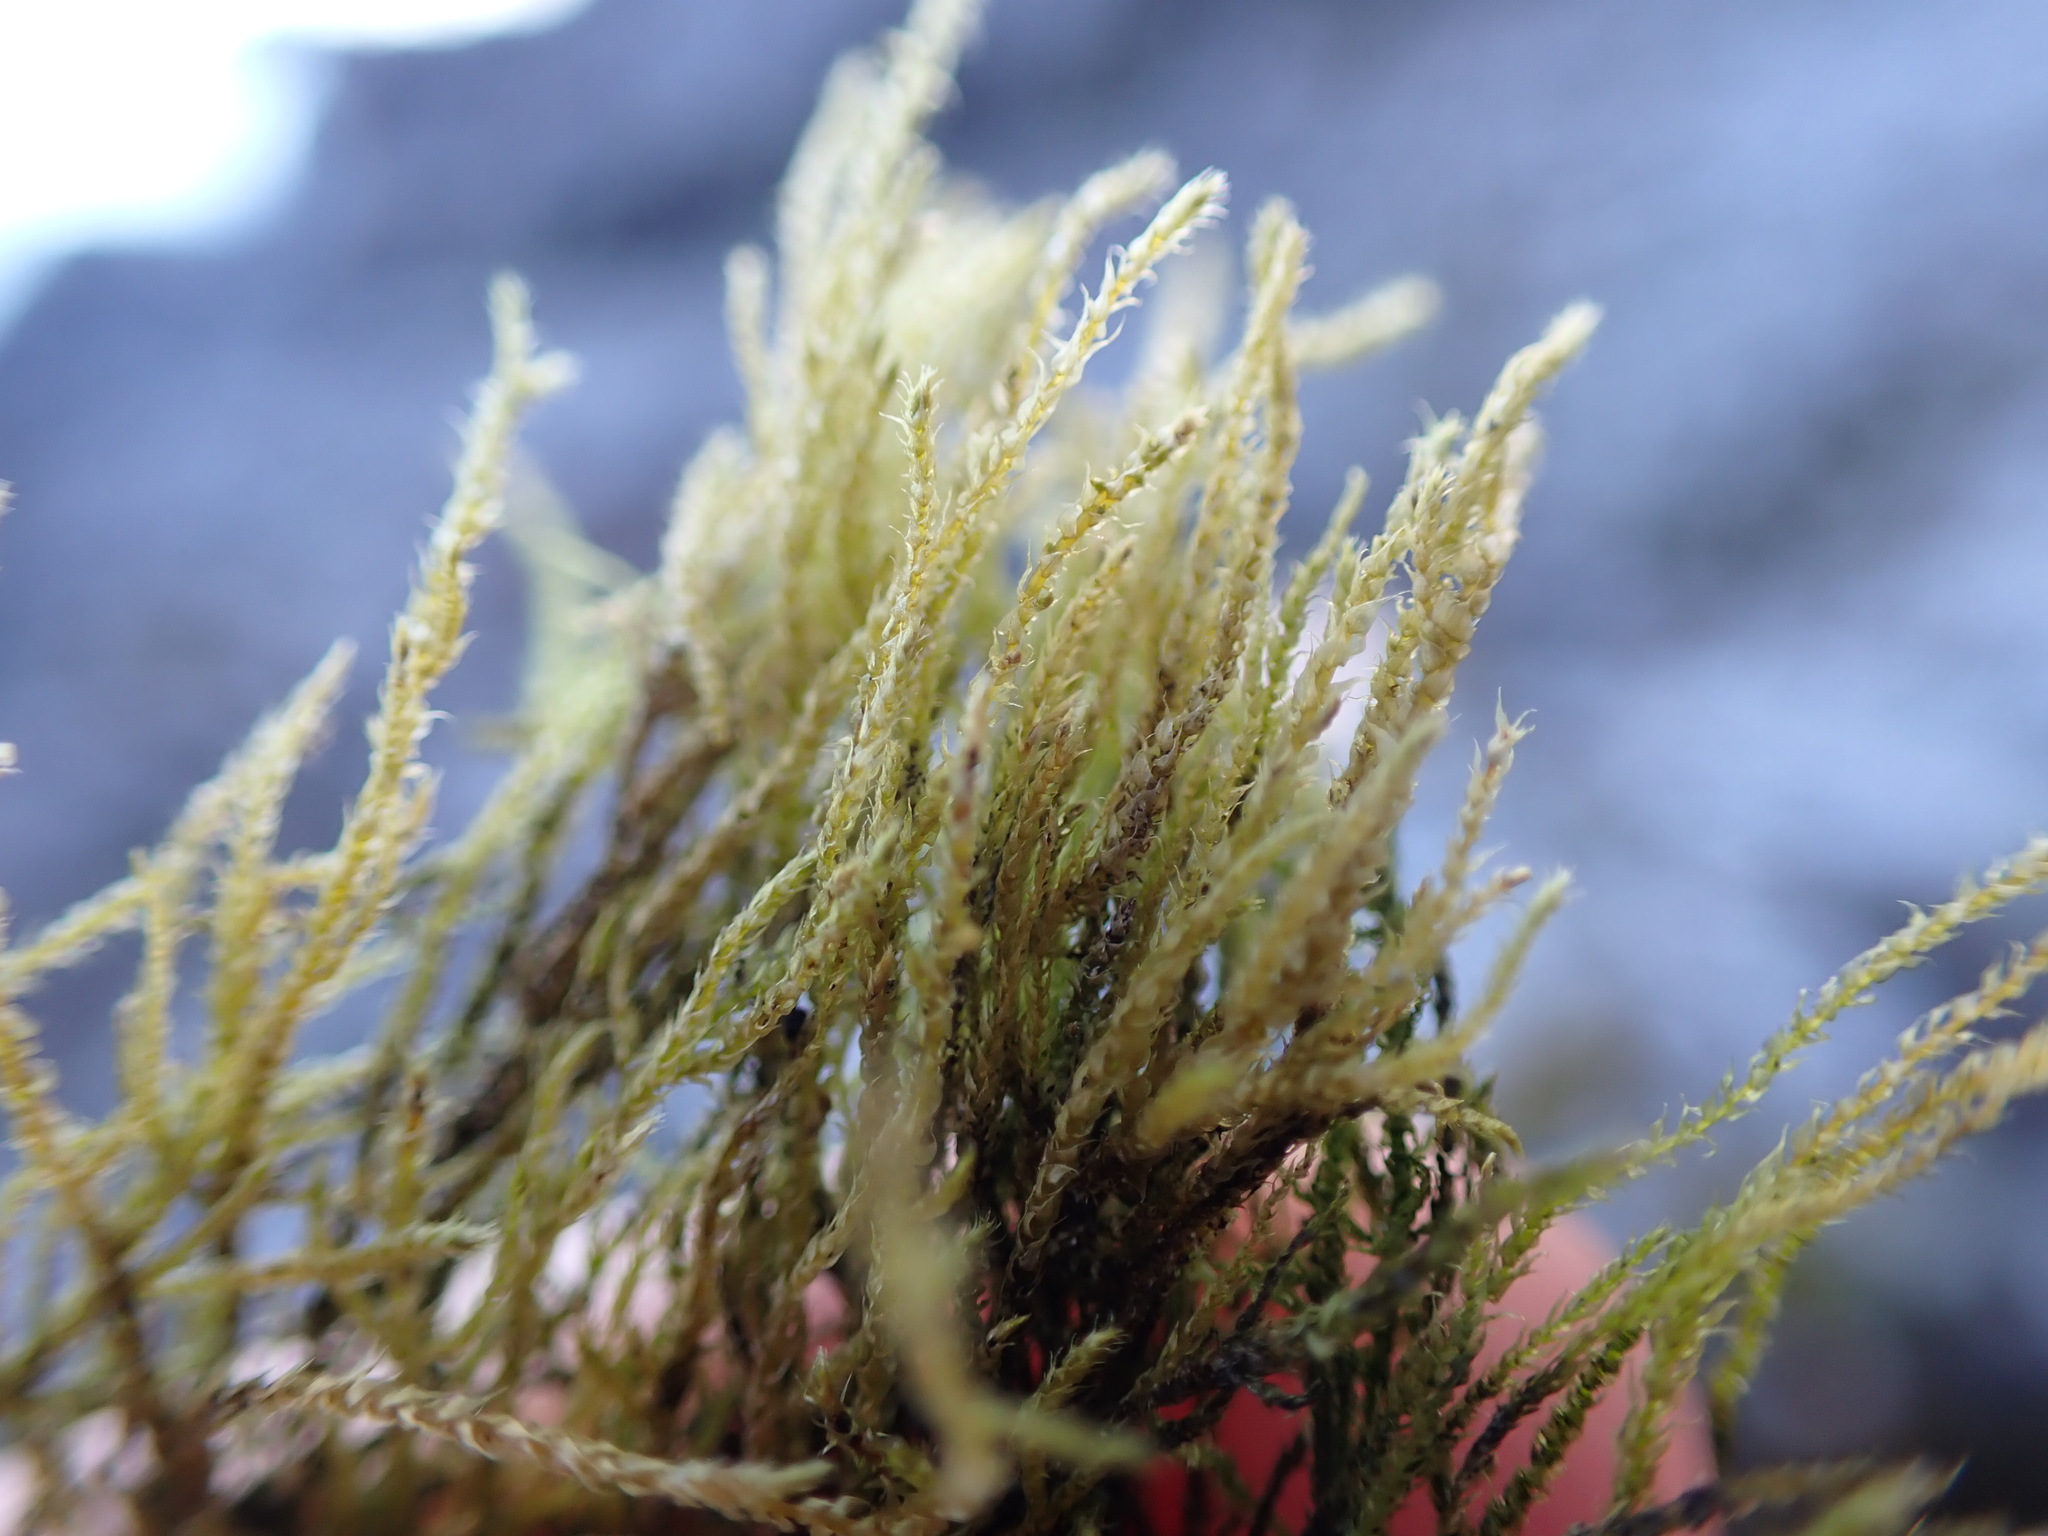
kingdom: Plantae
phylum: Bryophyta
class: Bryopsida
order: Hypnales
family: Lembophyllaceae
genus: Pseudisothecium
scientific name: Pseudisothecium stoloniferum
